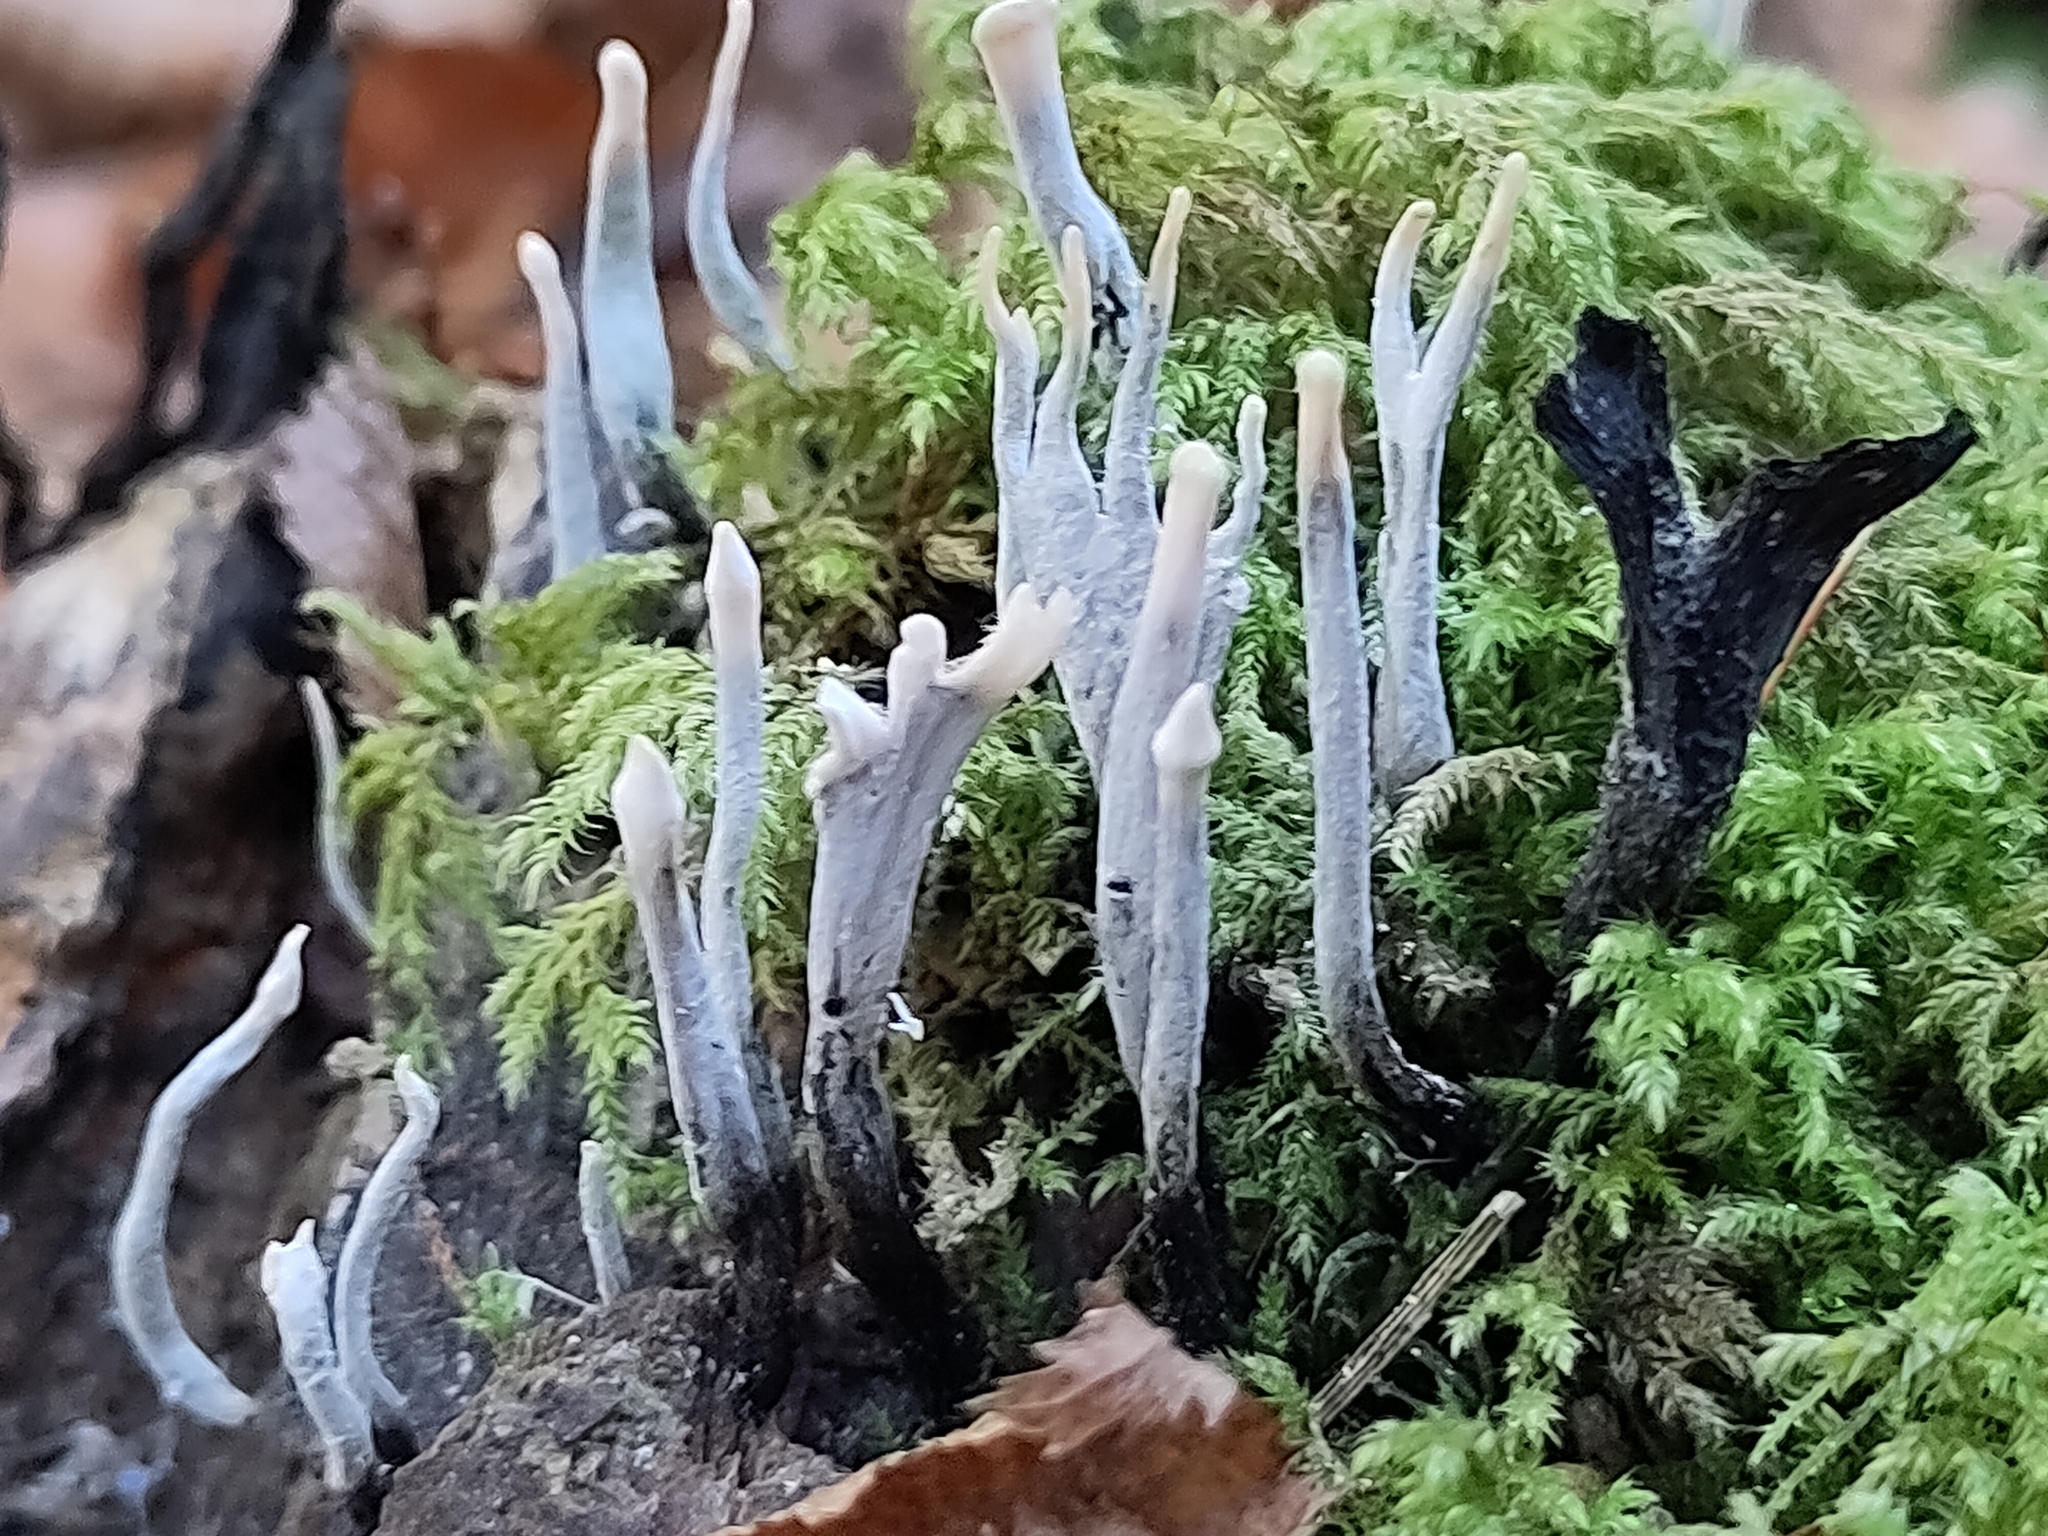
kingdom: Fungi
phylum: Ascomycota
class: Sordariomycetes
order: Xylariales
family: Xylariaceae
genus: Xylaria
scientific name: Xylaria hypoxylon
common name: Candle-snuff fungus
